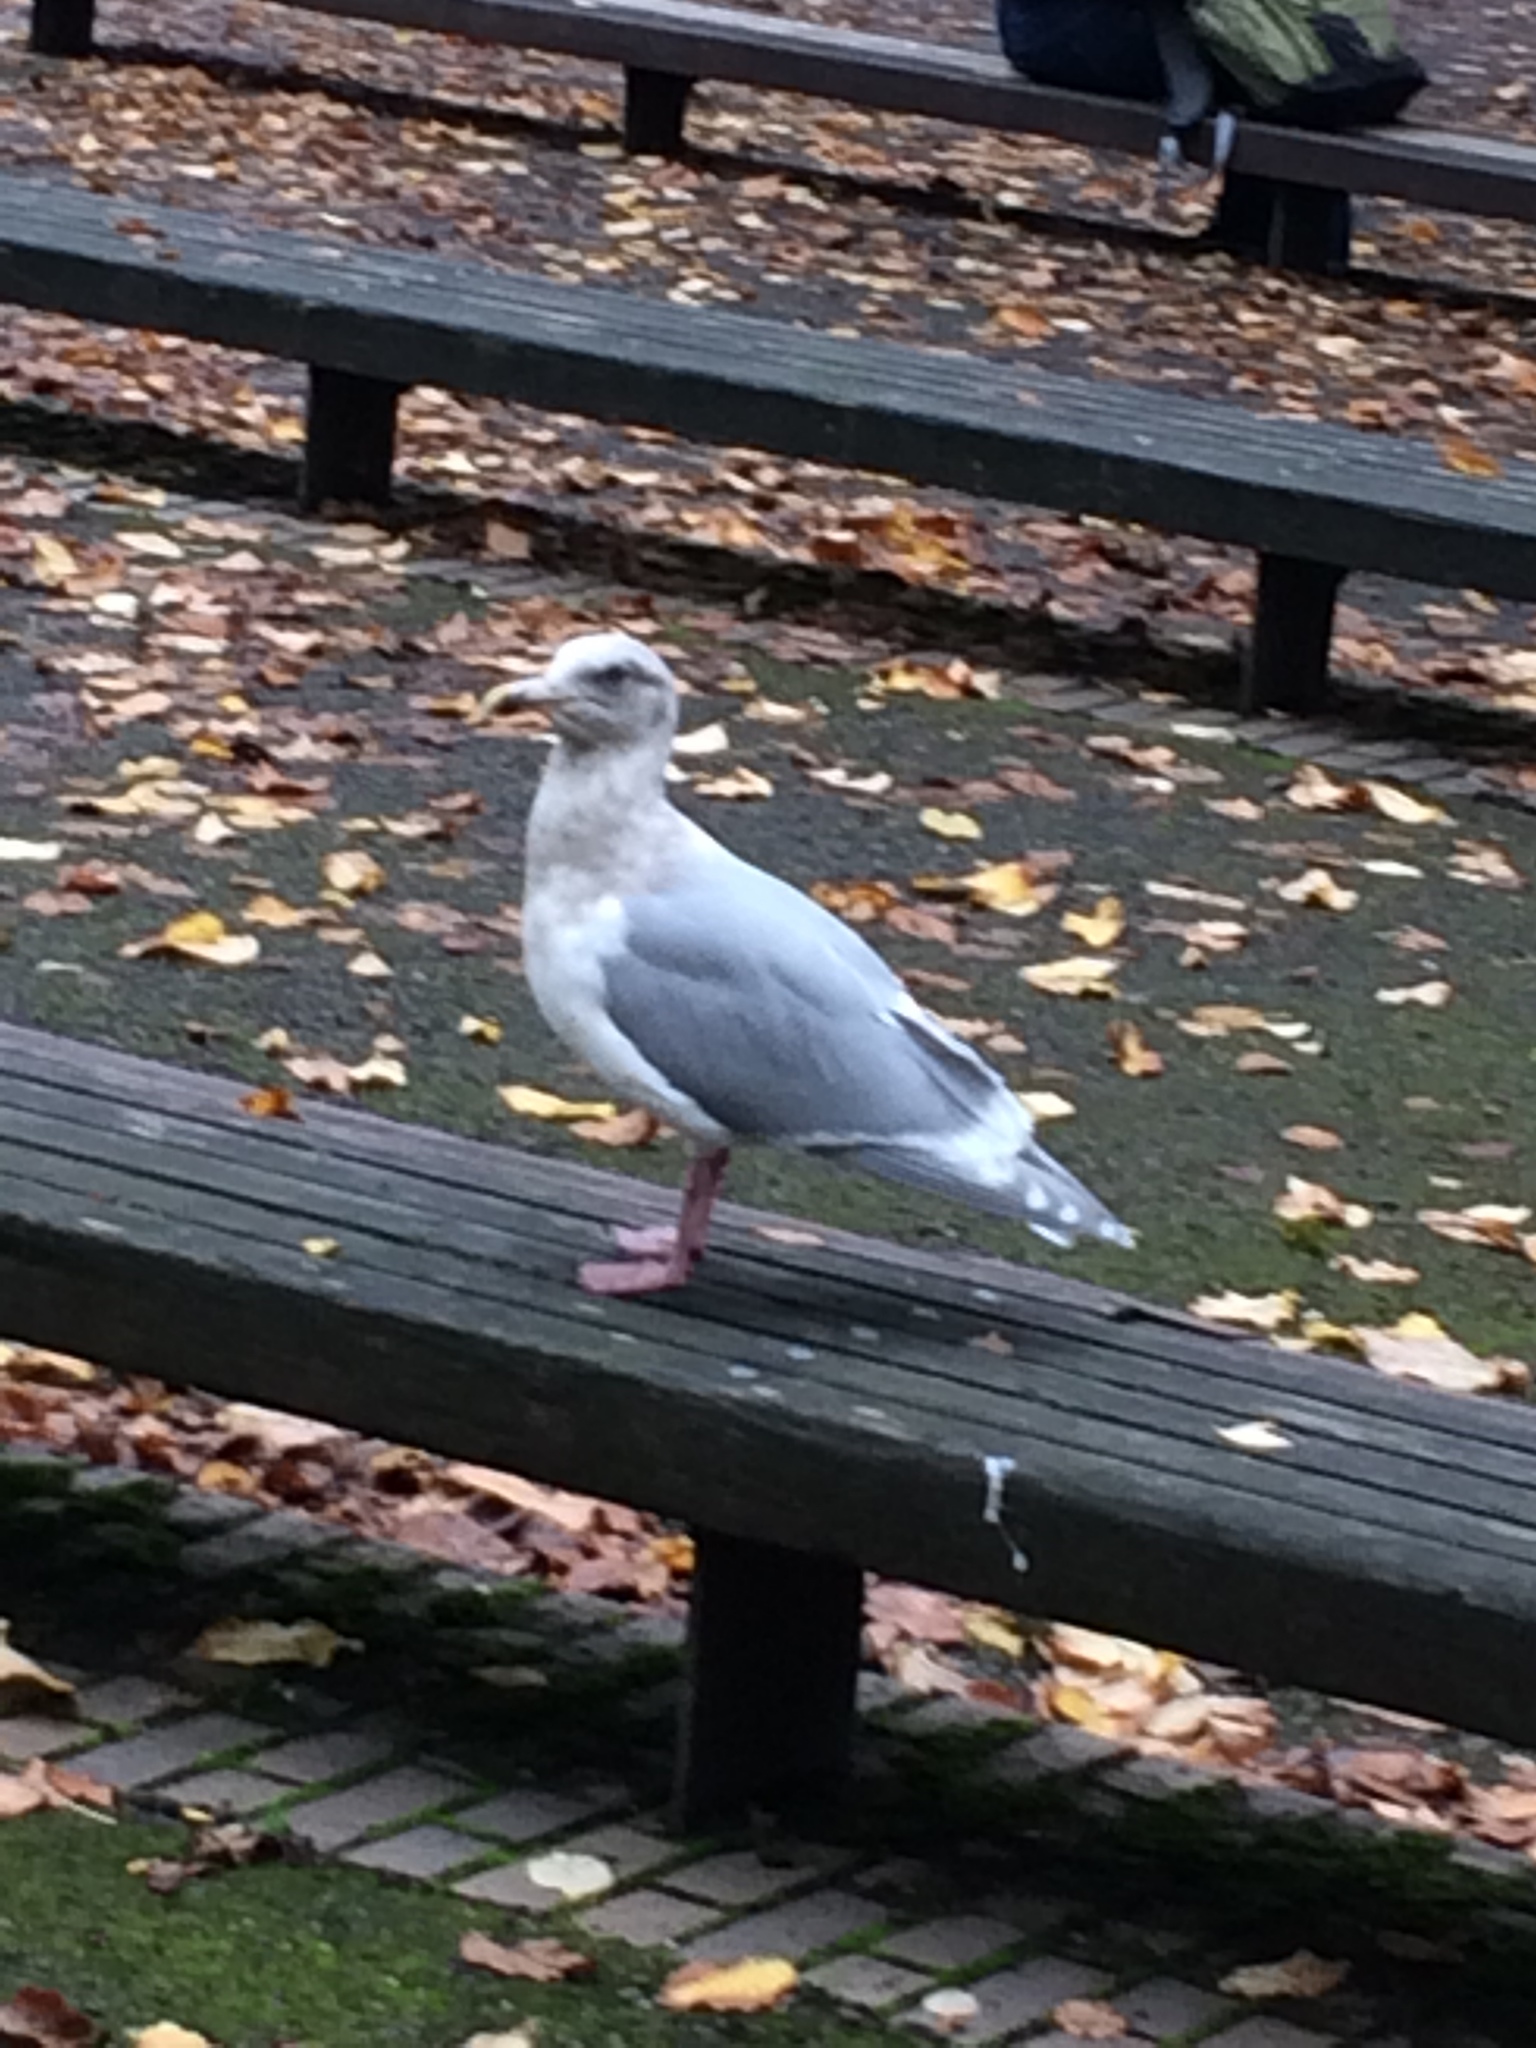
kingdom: Animalia
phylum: Chordata
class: Aves
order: Charadriiformes
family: Laridae
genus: Larus
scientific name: Larus glaucescens
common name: Glaucous-winged gull
